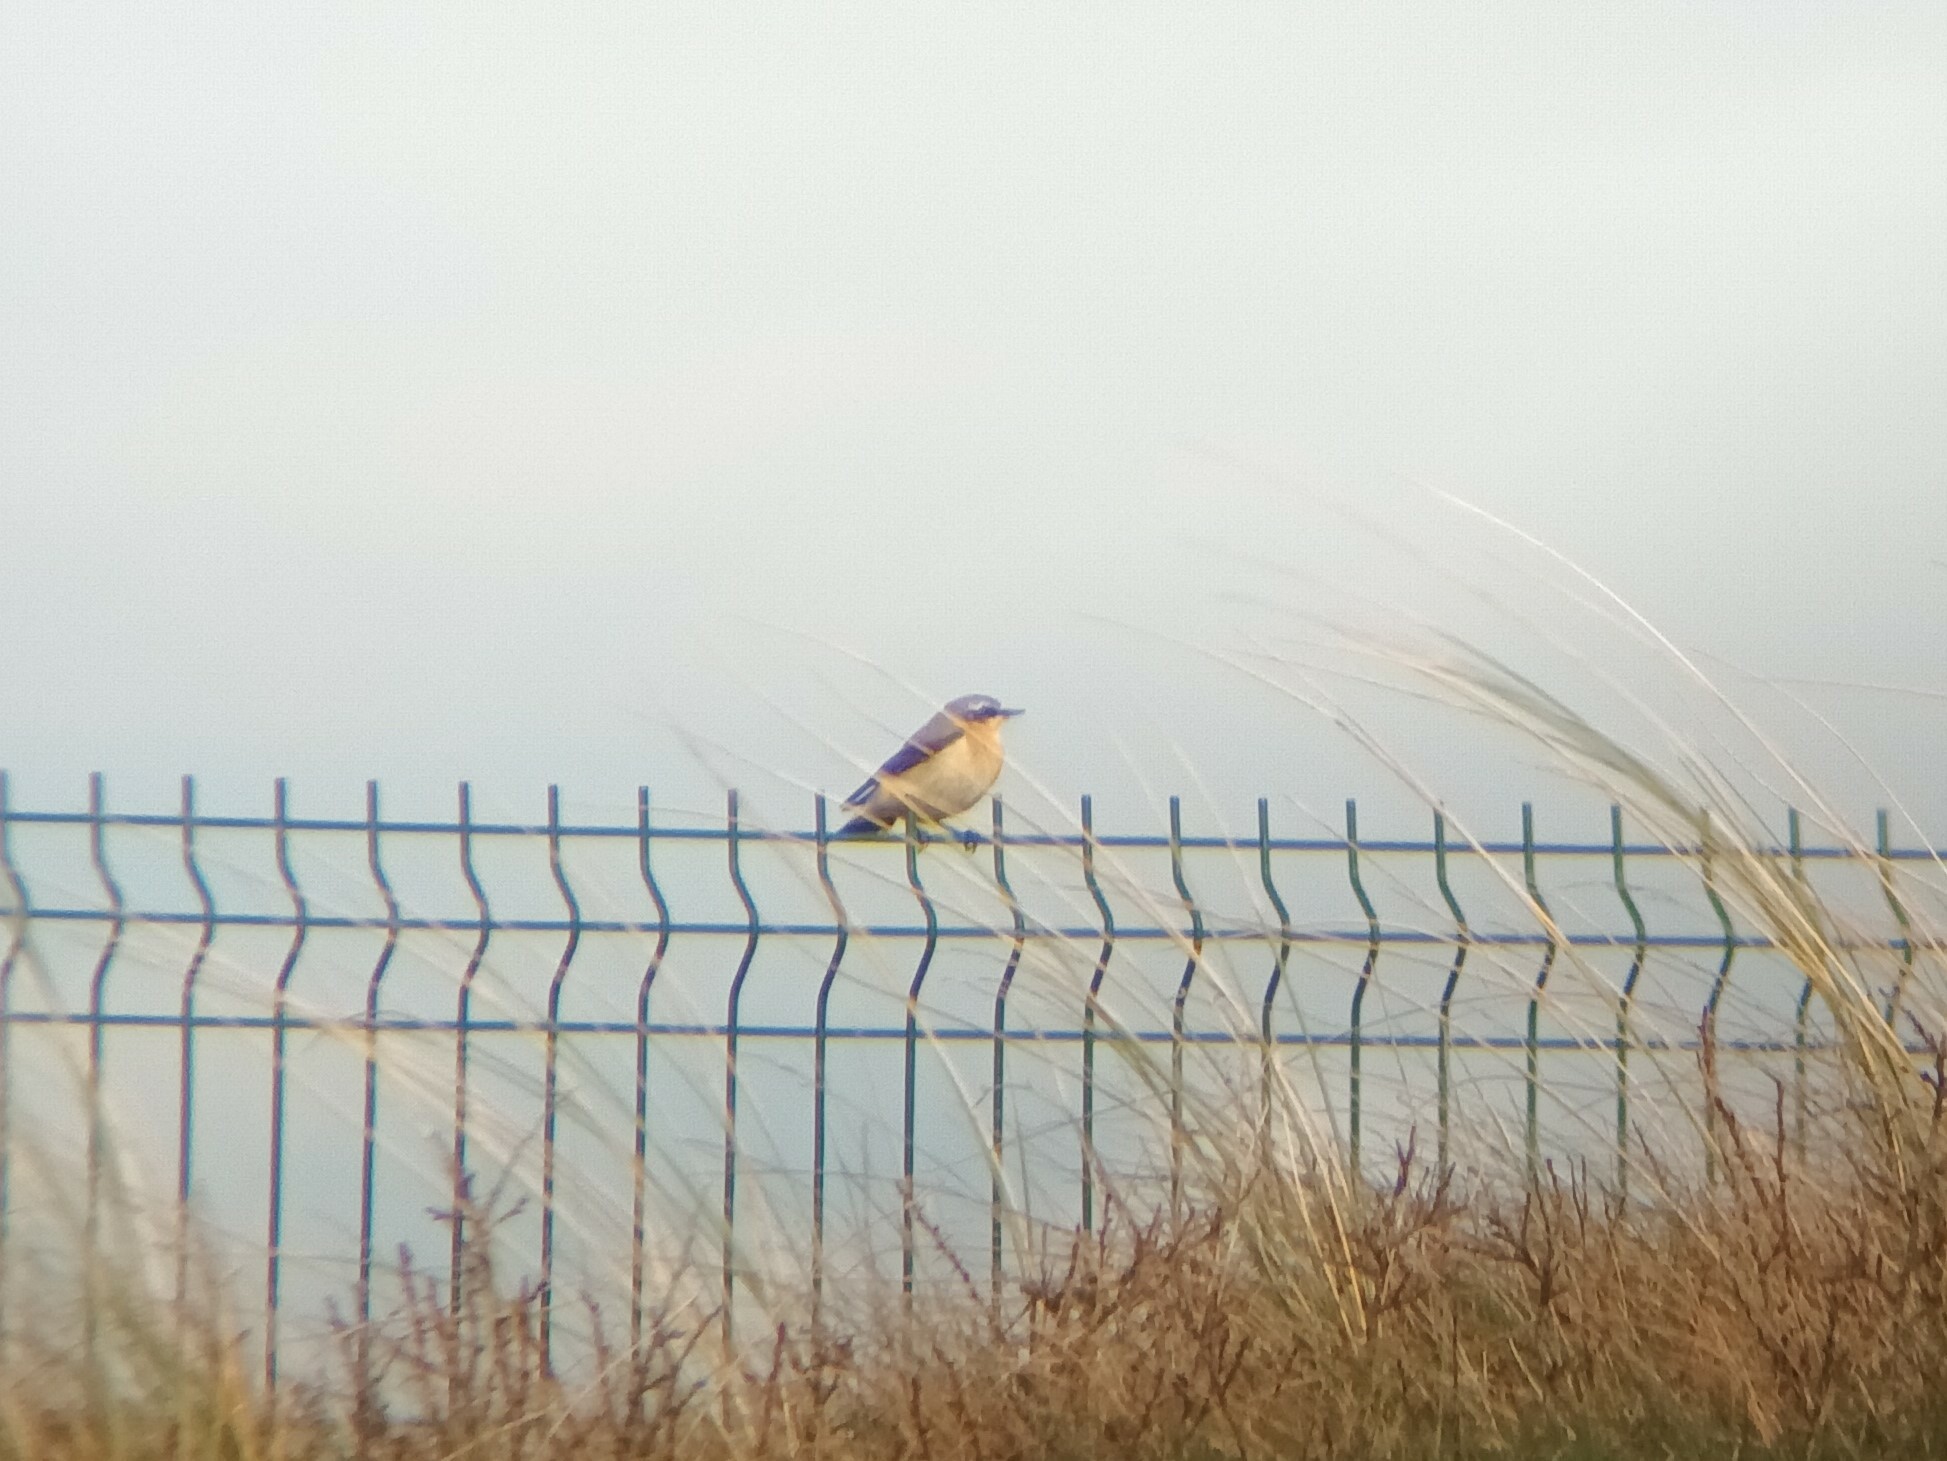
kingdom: Animalia
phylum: Chordata
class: Aves
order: Passeriformes
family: Muscicapidae
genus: Oenanthe
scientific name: Oenanthe oenanthe
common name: Northern wheatear
